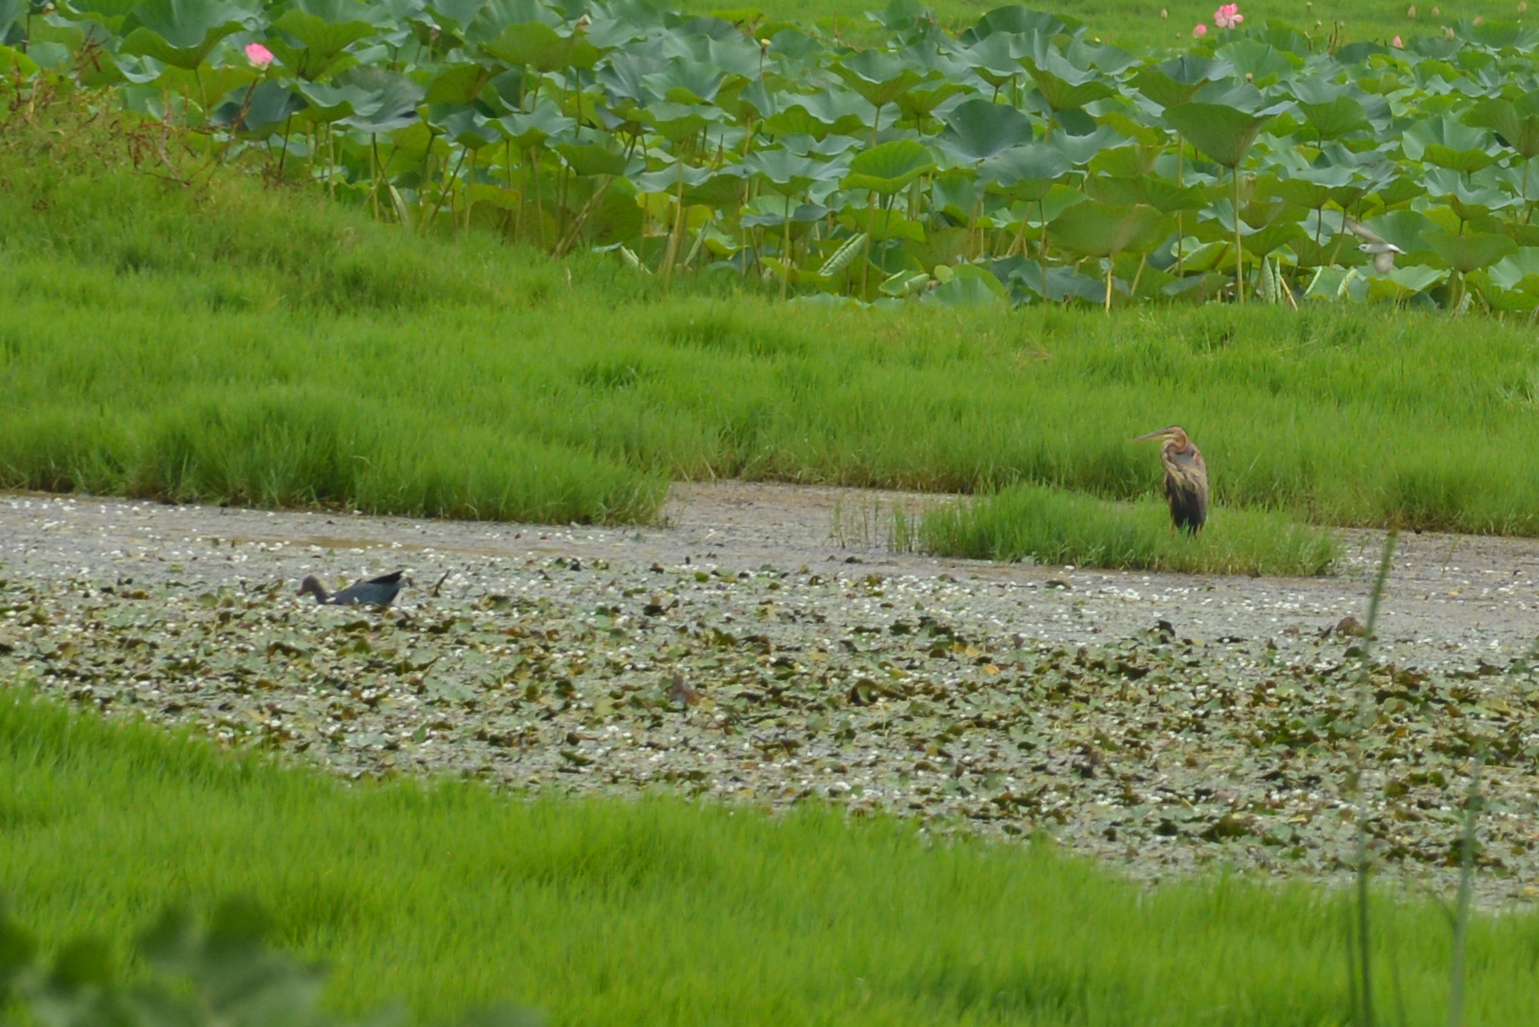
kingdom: Animalia
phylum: Chordata
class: Aves
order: Gruiformes
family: Rallidae
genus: Porphyrio
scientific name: Porphyrio porphyrio
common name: Purple swamphen
